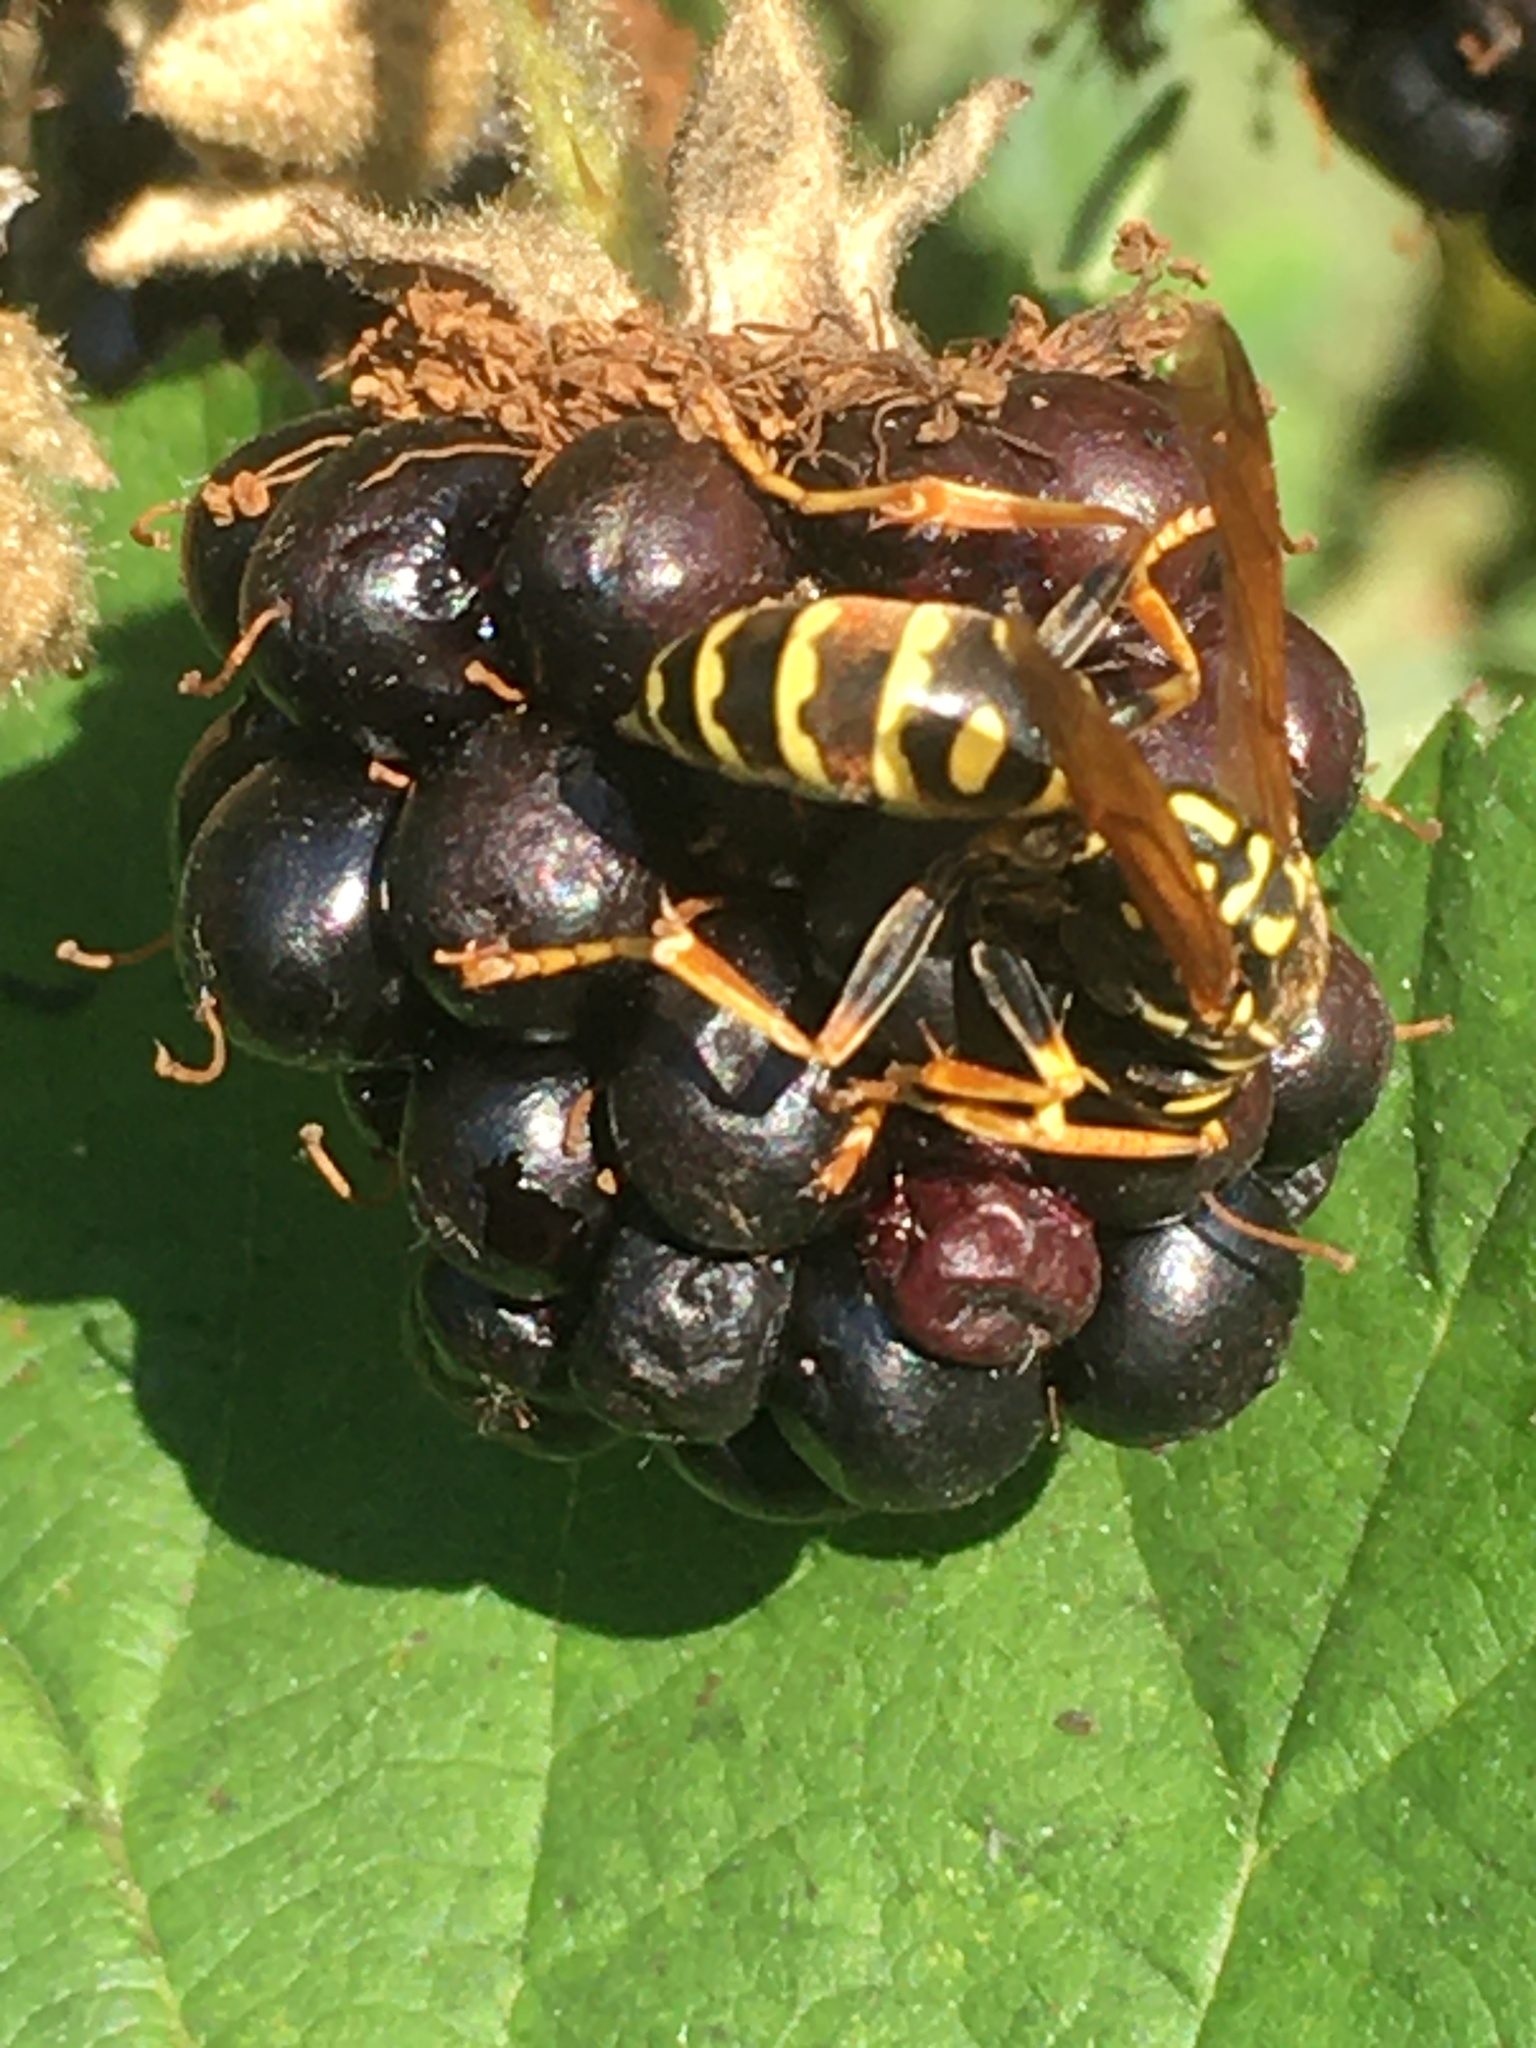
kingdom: Animalia
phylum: Arthropoda
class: Insecta
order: Hymenoptera
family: Eumenidae
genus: Polistes
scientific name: Polistes dominula
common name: Paper wasp
